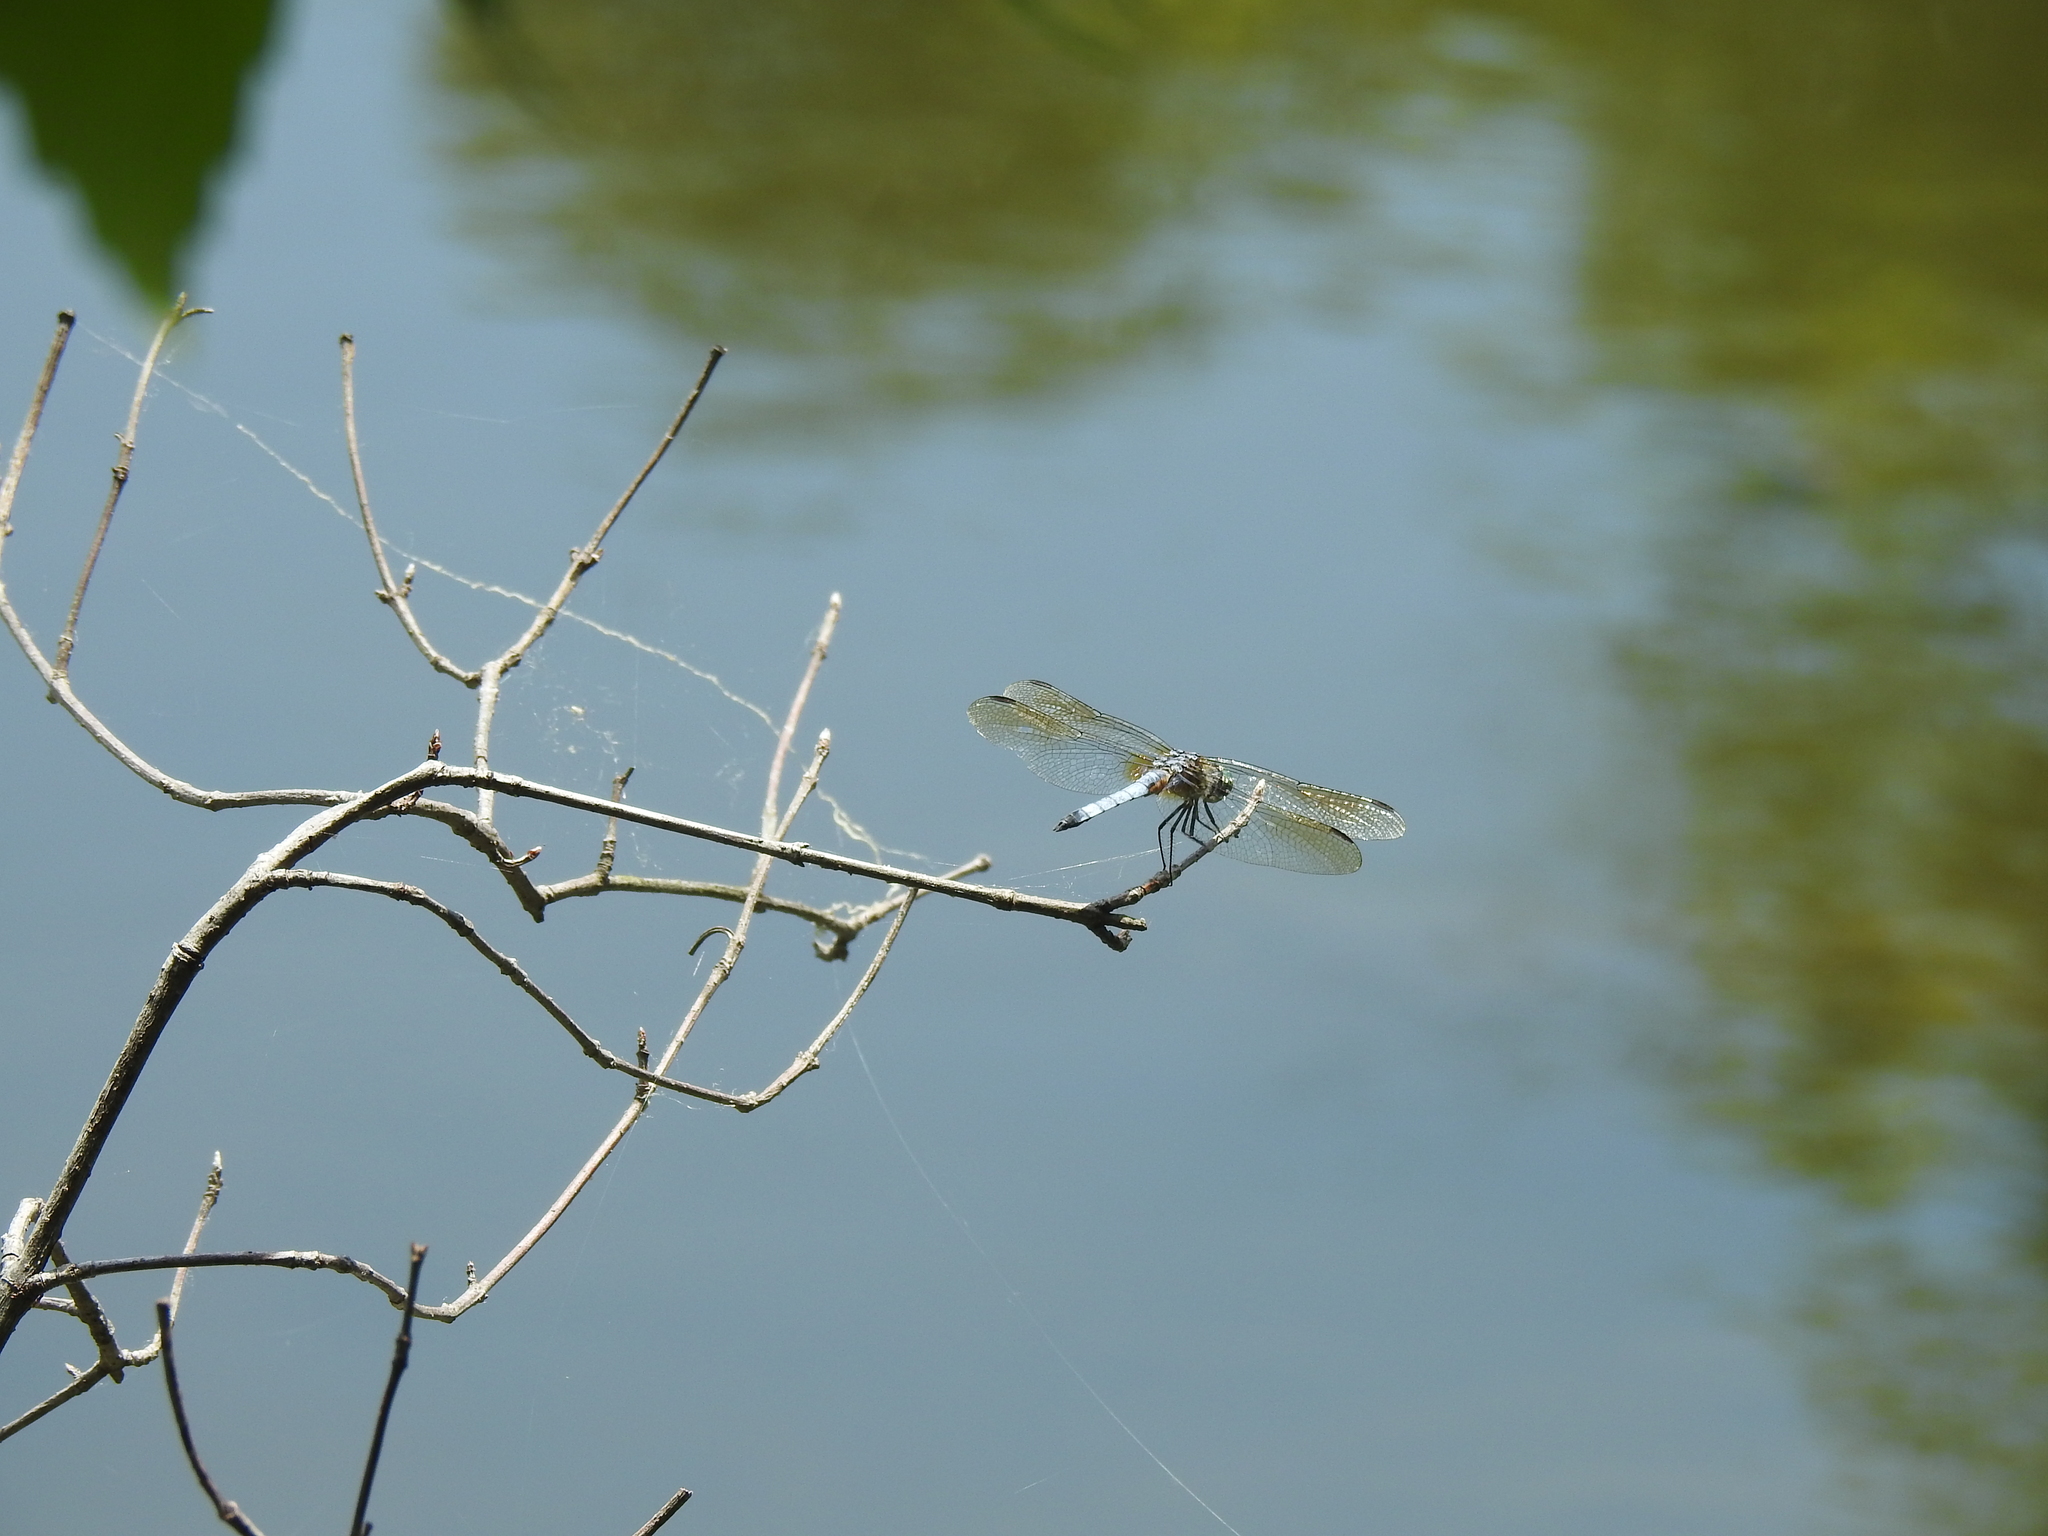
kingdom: Animalia
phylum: Arthropoda
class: Insecta
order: Odonata
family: Libellulidae
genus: Pachydiplax
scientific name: Pachydiplax longipennis
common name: Blue dasher
